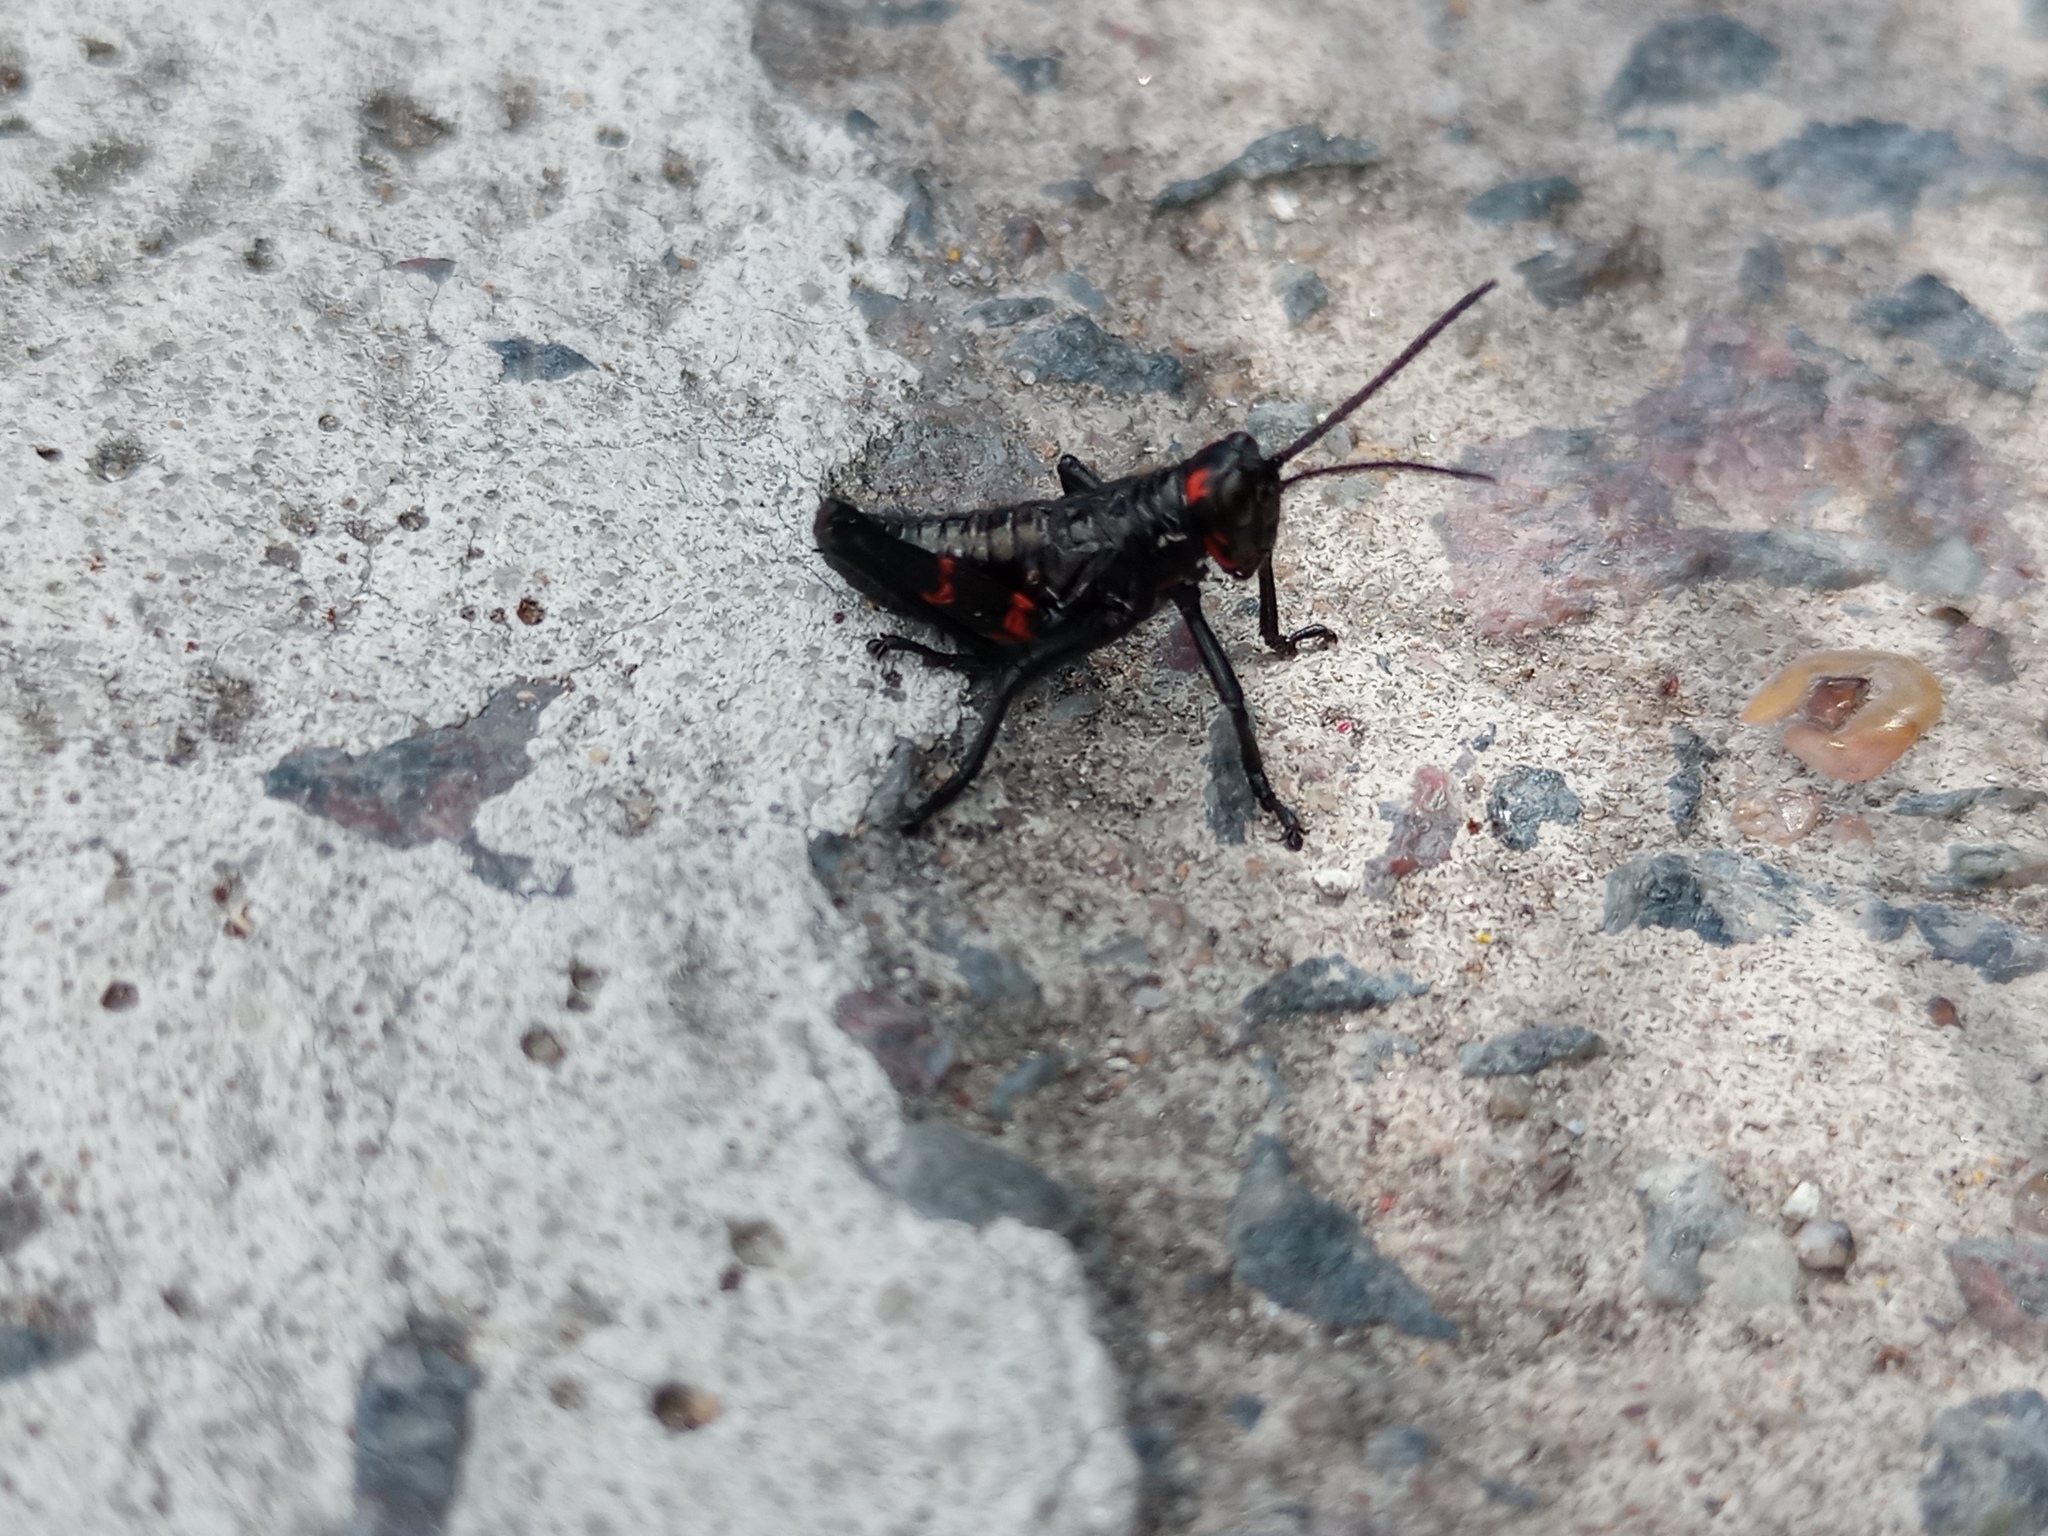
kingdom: Animalia
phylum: Arthropoda
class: Insecta
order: Orthoptera
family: Romaleidae
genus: Chromacris
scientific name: Chromacris speciosa
